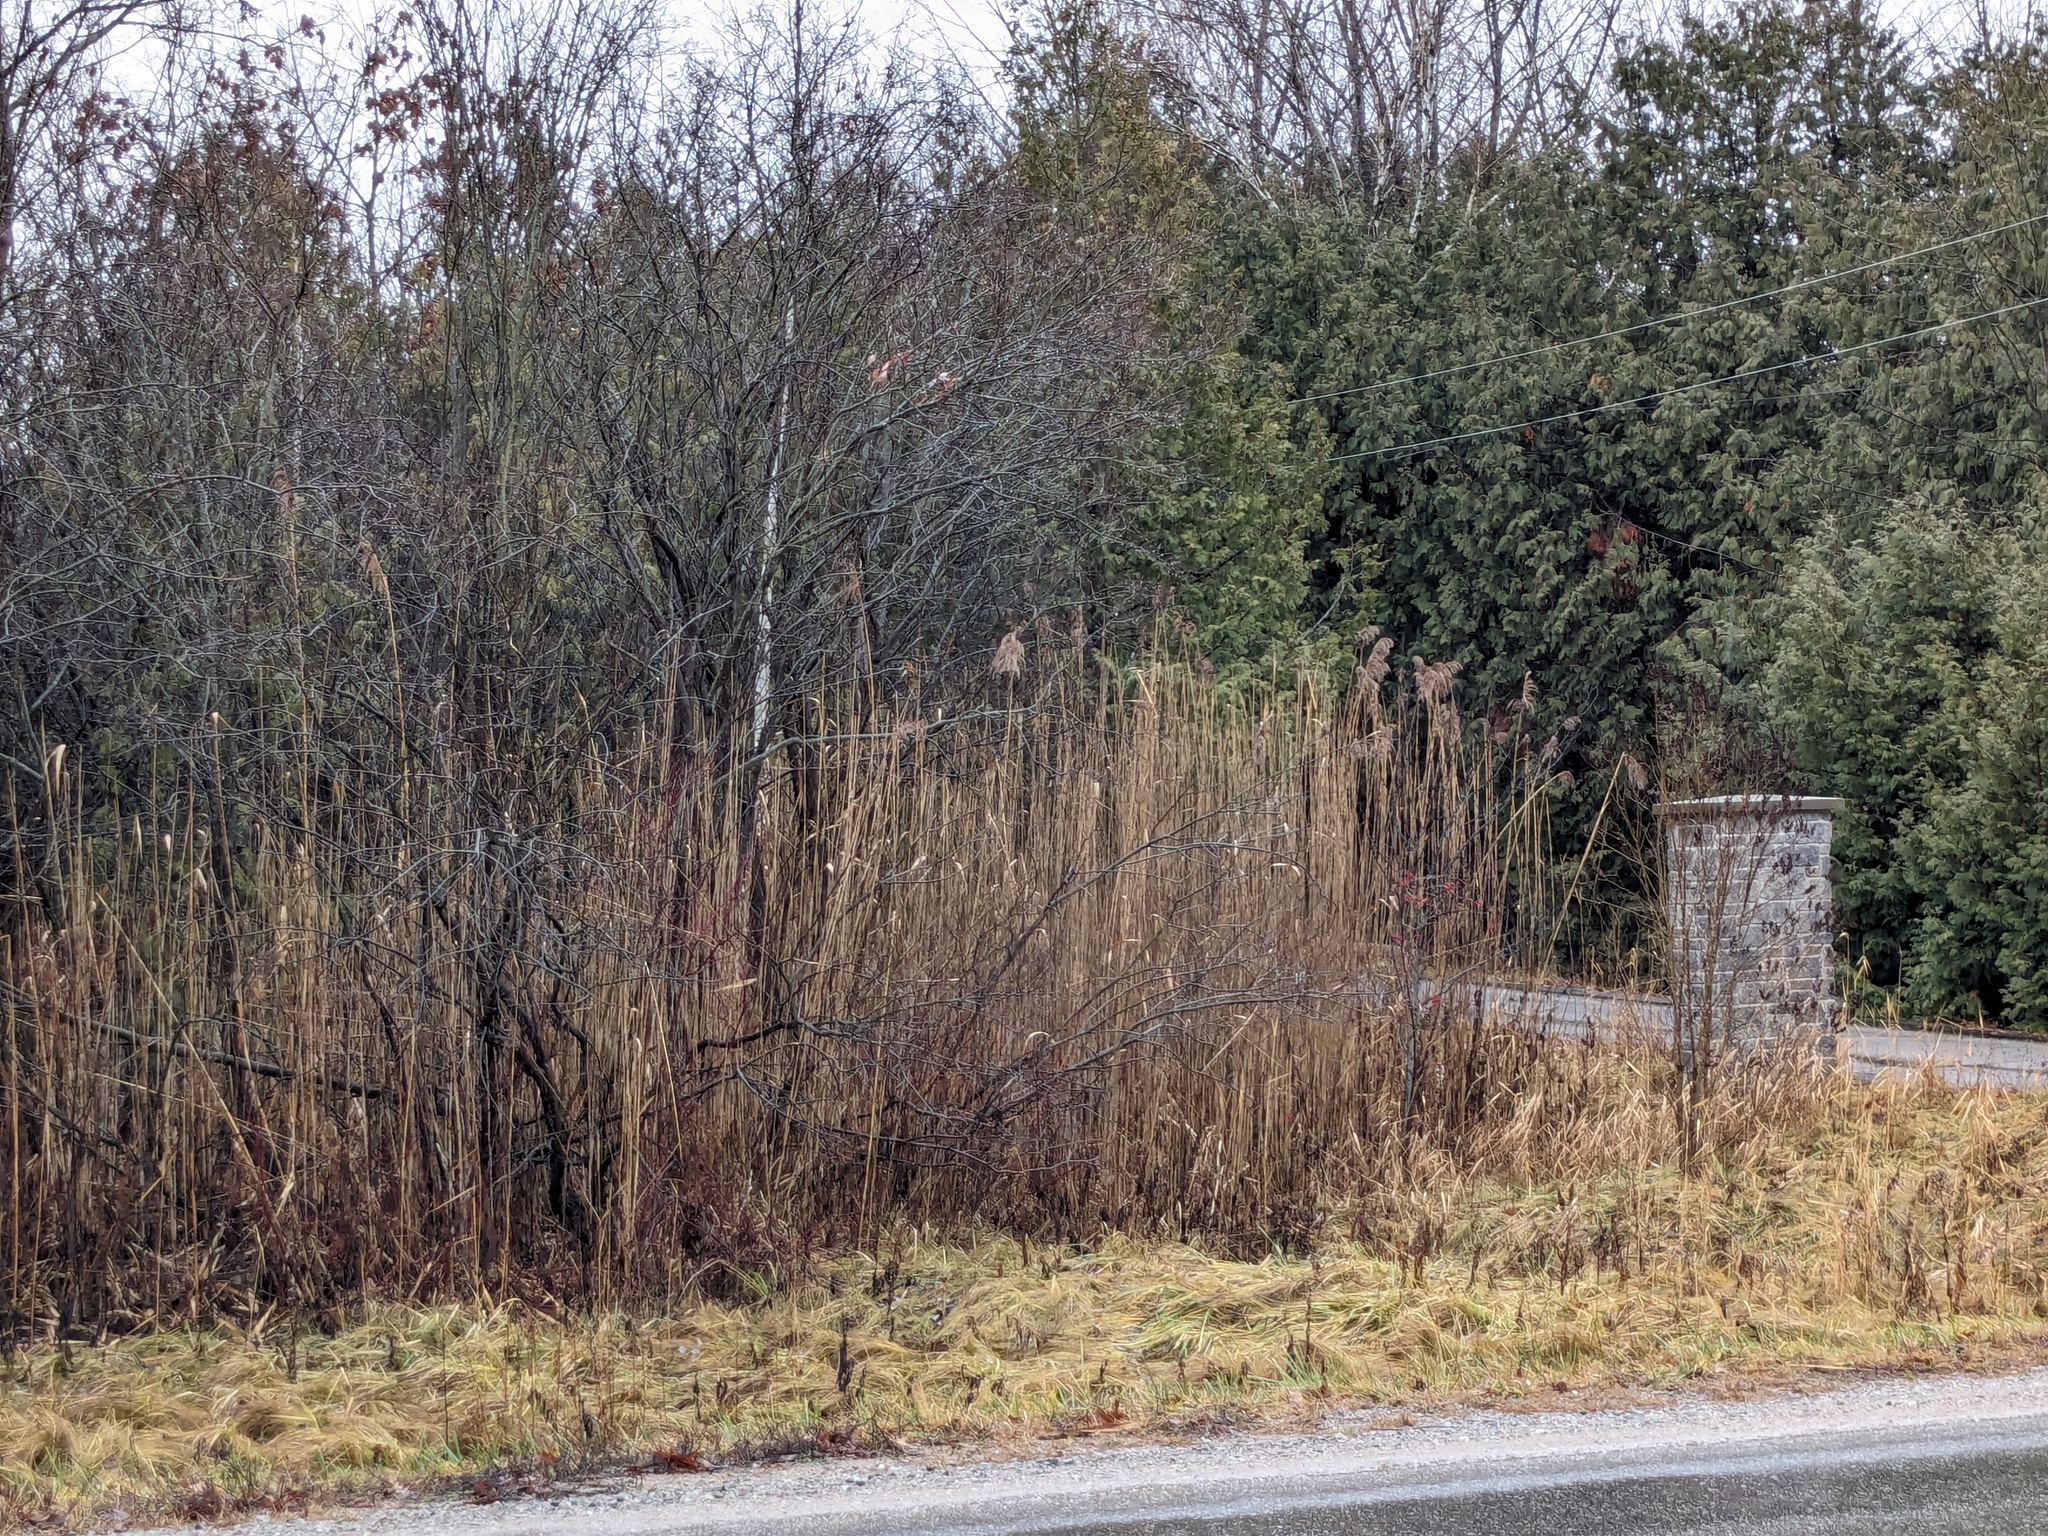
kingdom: Plantae
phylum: Tracheophyta
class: Liliopsida
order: Poales
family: Poaceae
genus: Phragmites
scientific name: Phragmites australis
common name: Common reed
